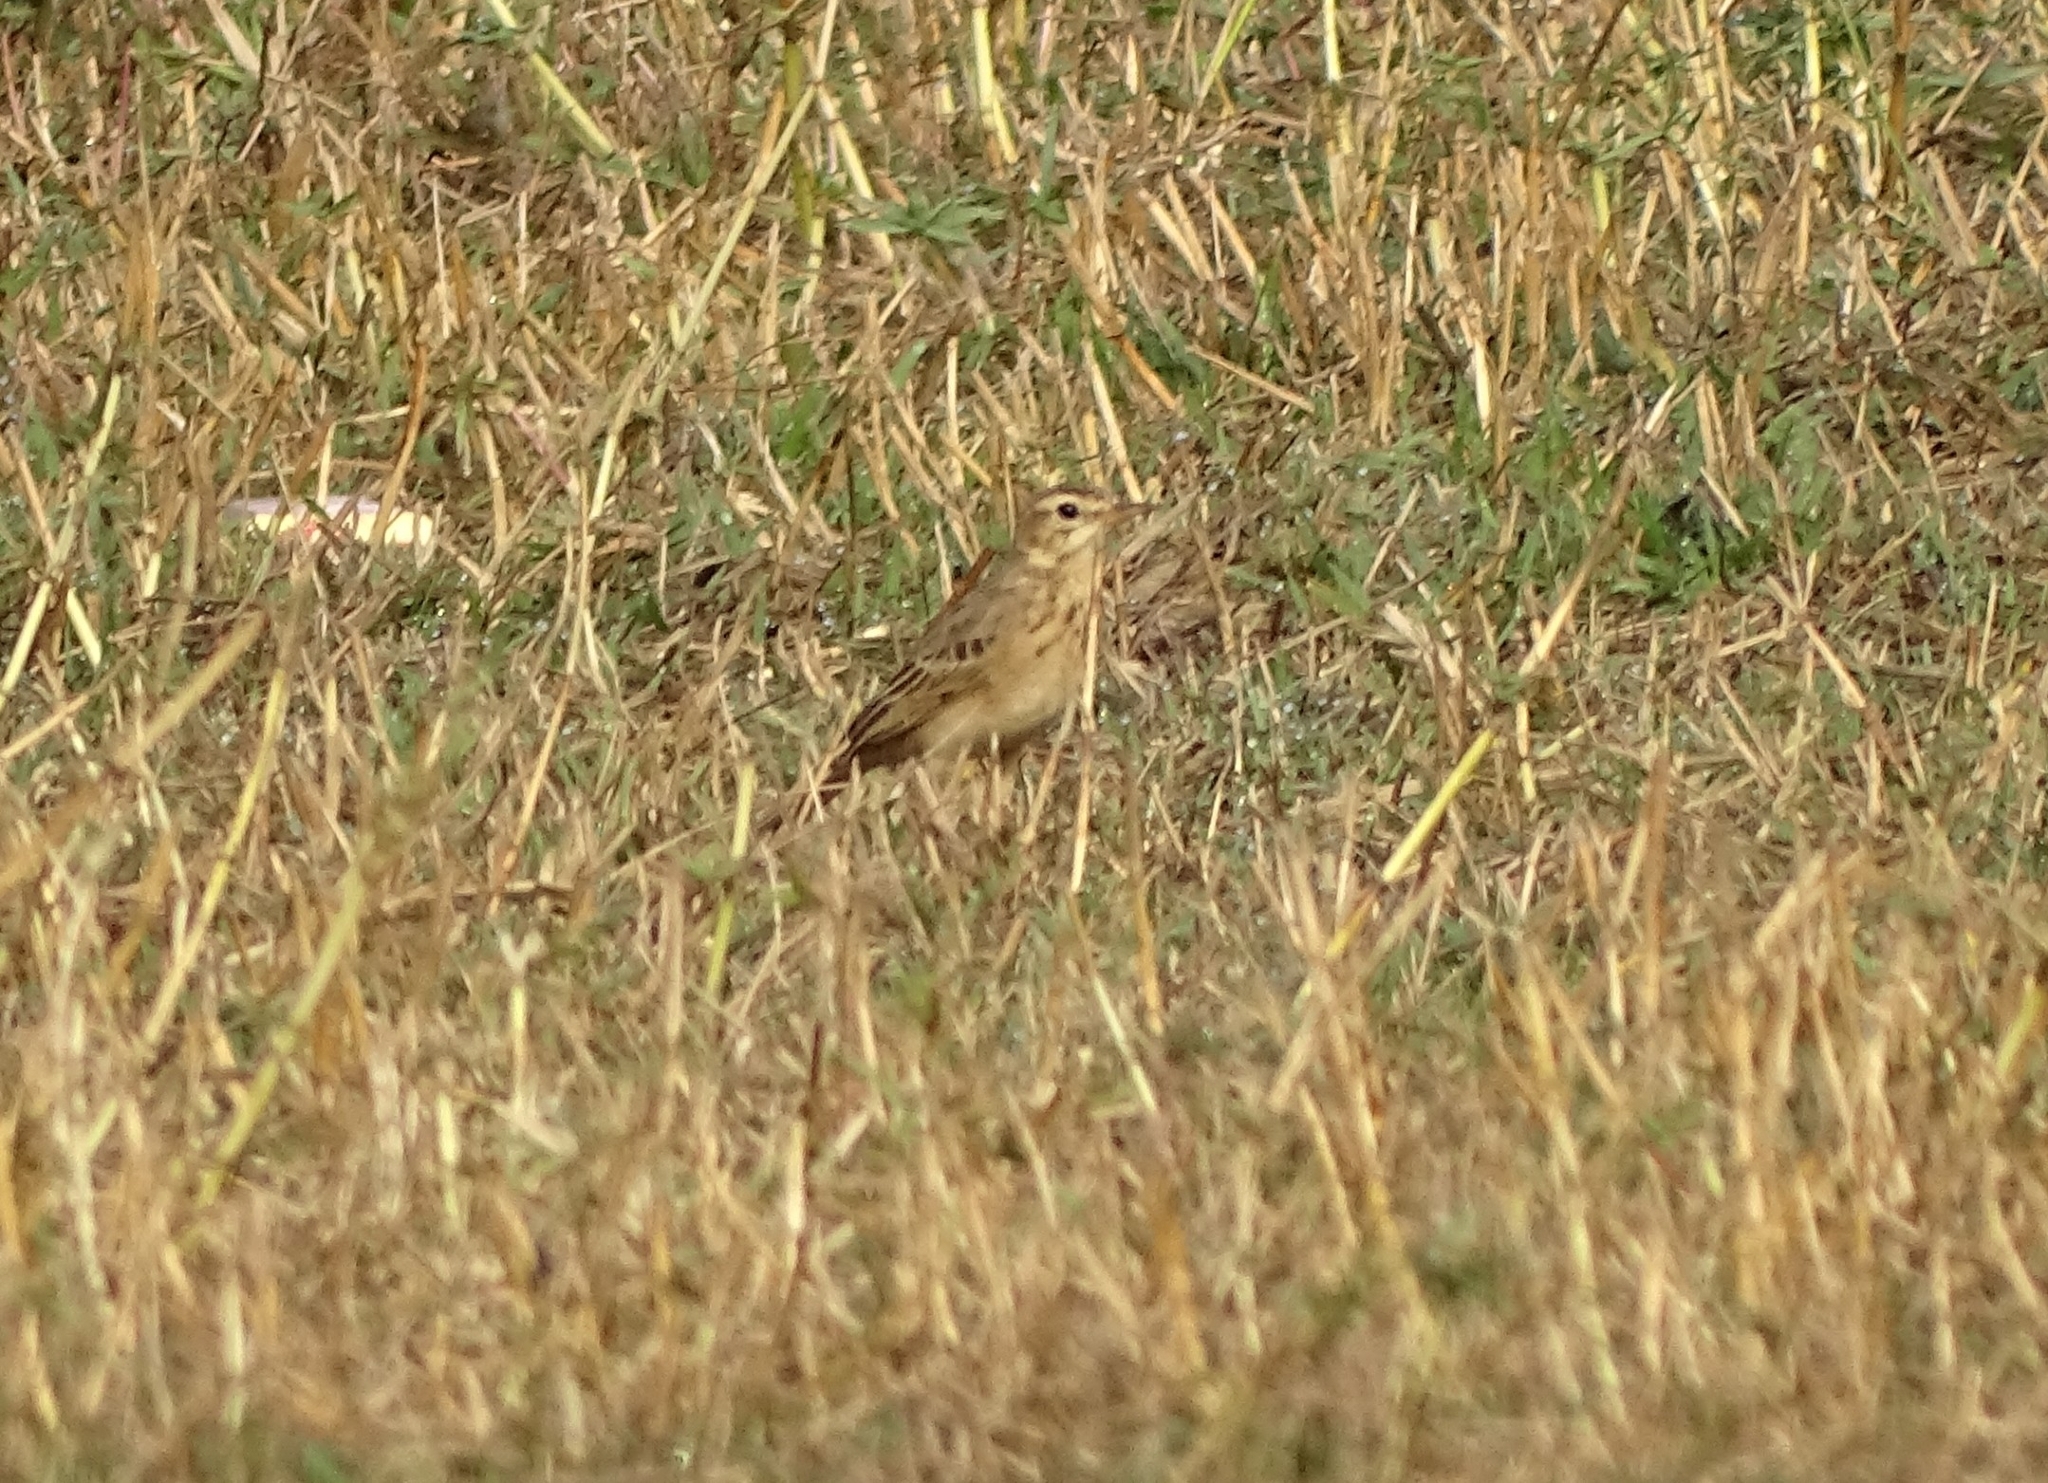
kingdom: Animalia
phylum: Chordata
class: Aves
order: Passeriformes
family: Motacillidae
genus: Anthus
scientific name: Anthus rufulus
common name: Paddyfield pipit
